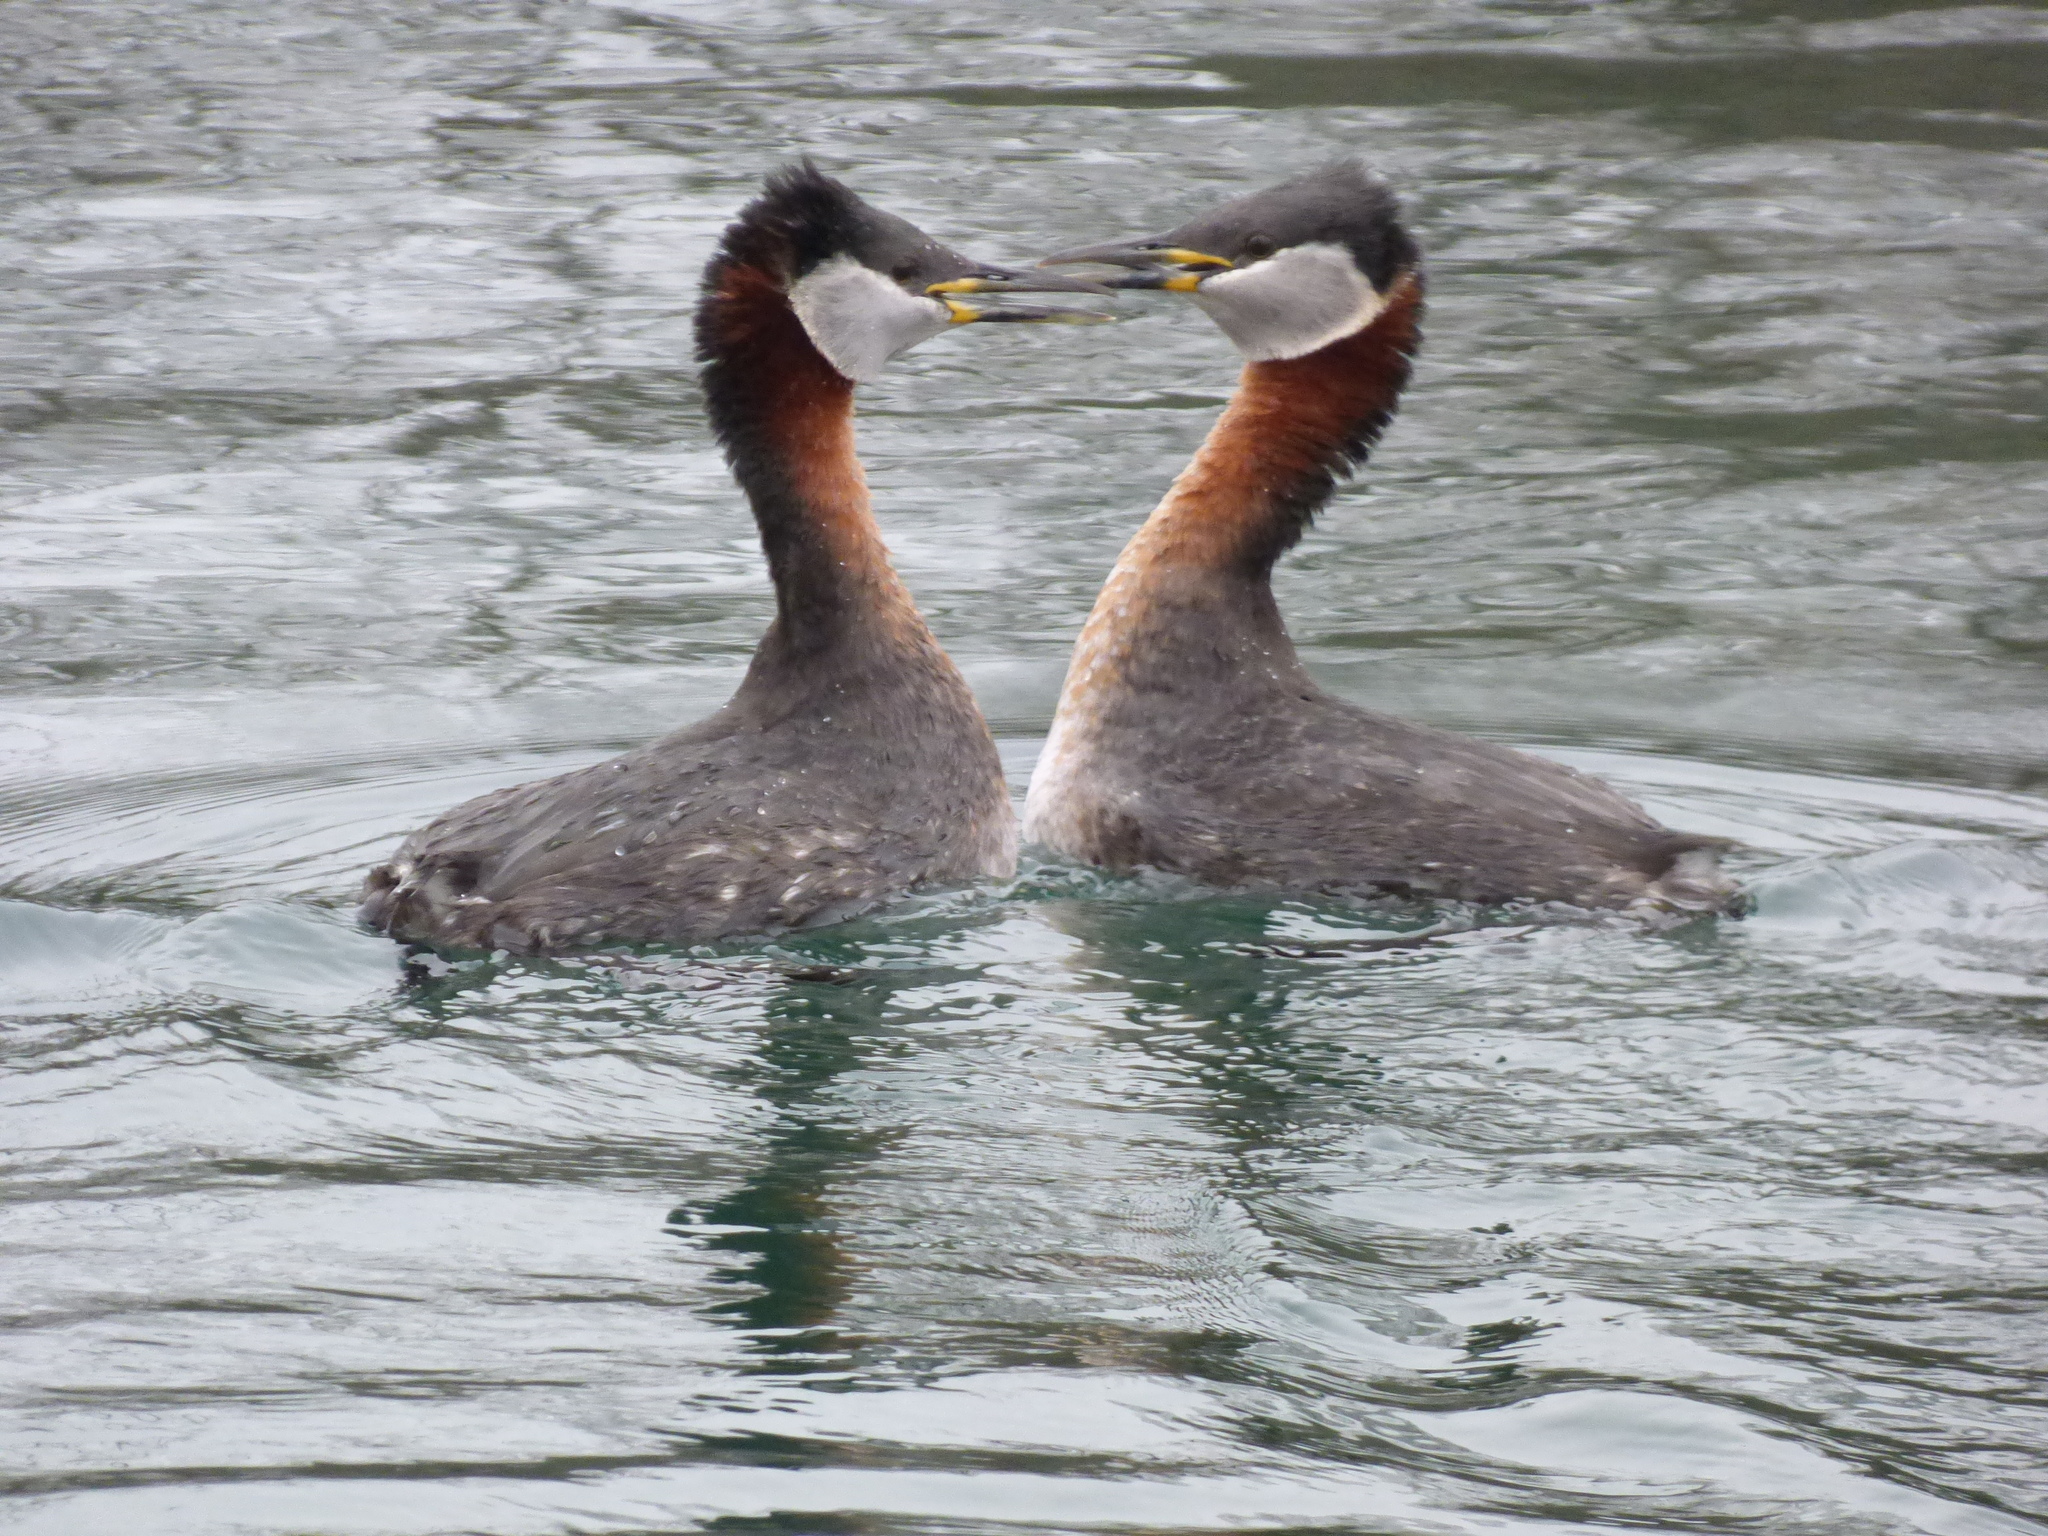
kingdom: Animalia
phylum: Chordata
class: Aves
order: Podicipediformes
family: Podicipedidae
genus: Podiceps
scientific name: Podiceps grisegena
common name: Red-necked grebe
